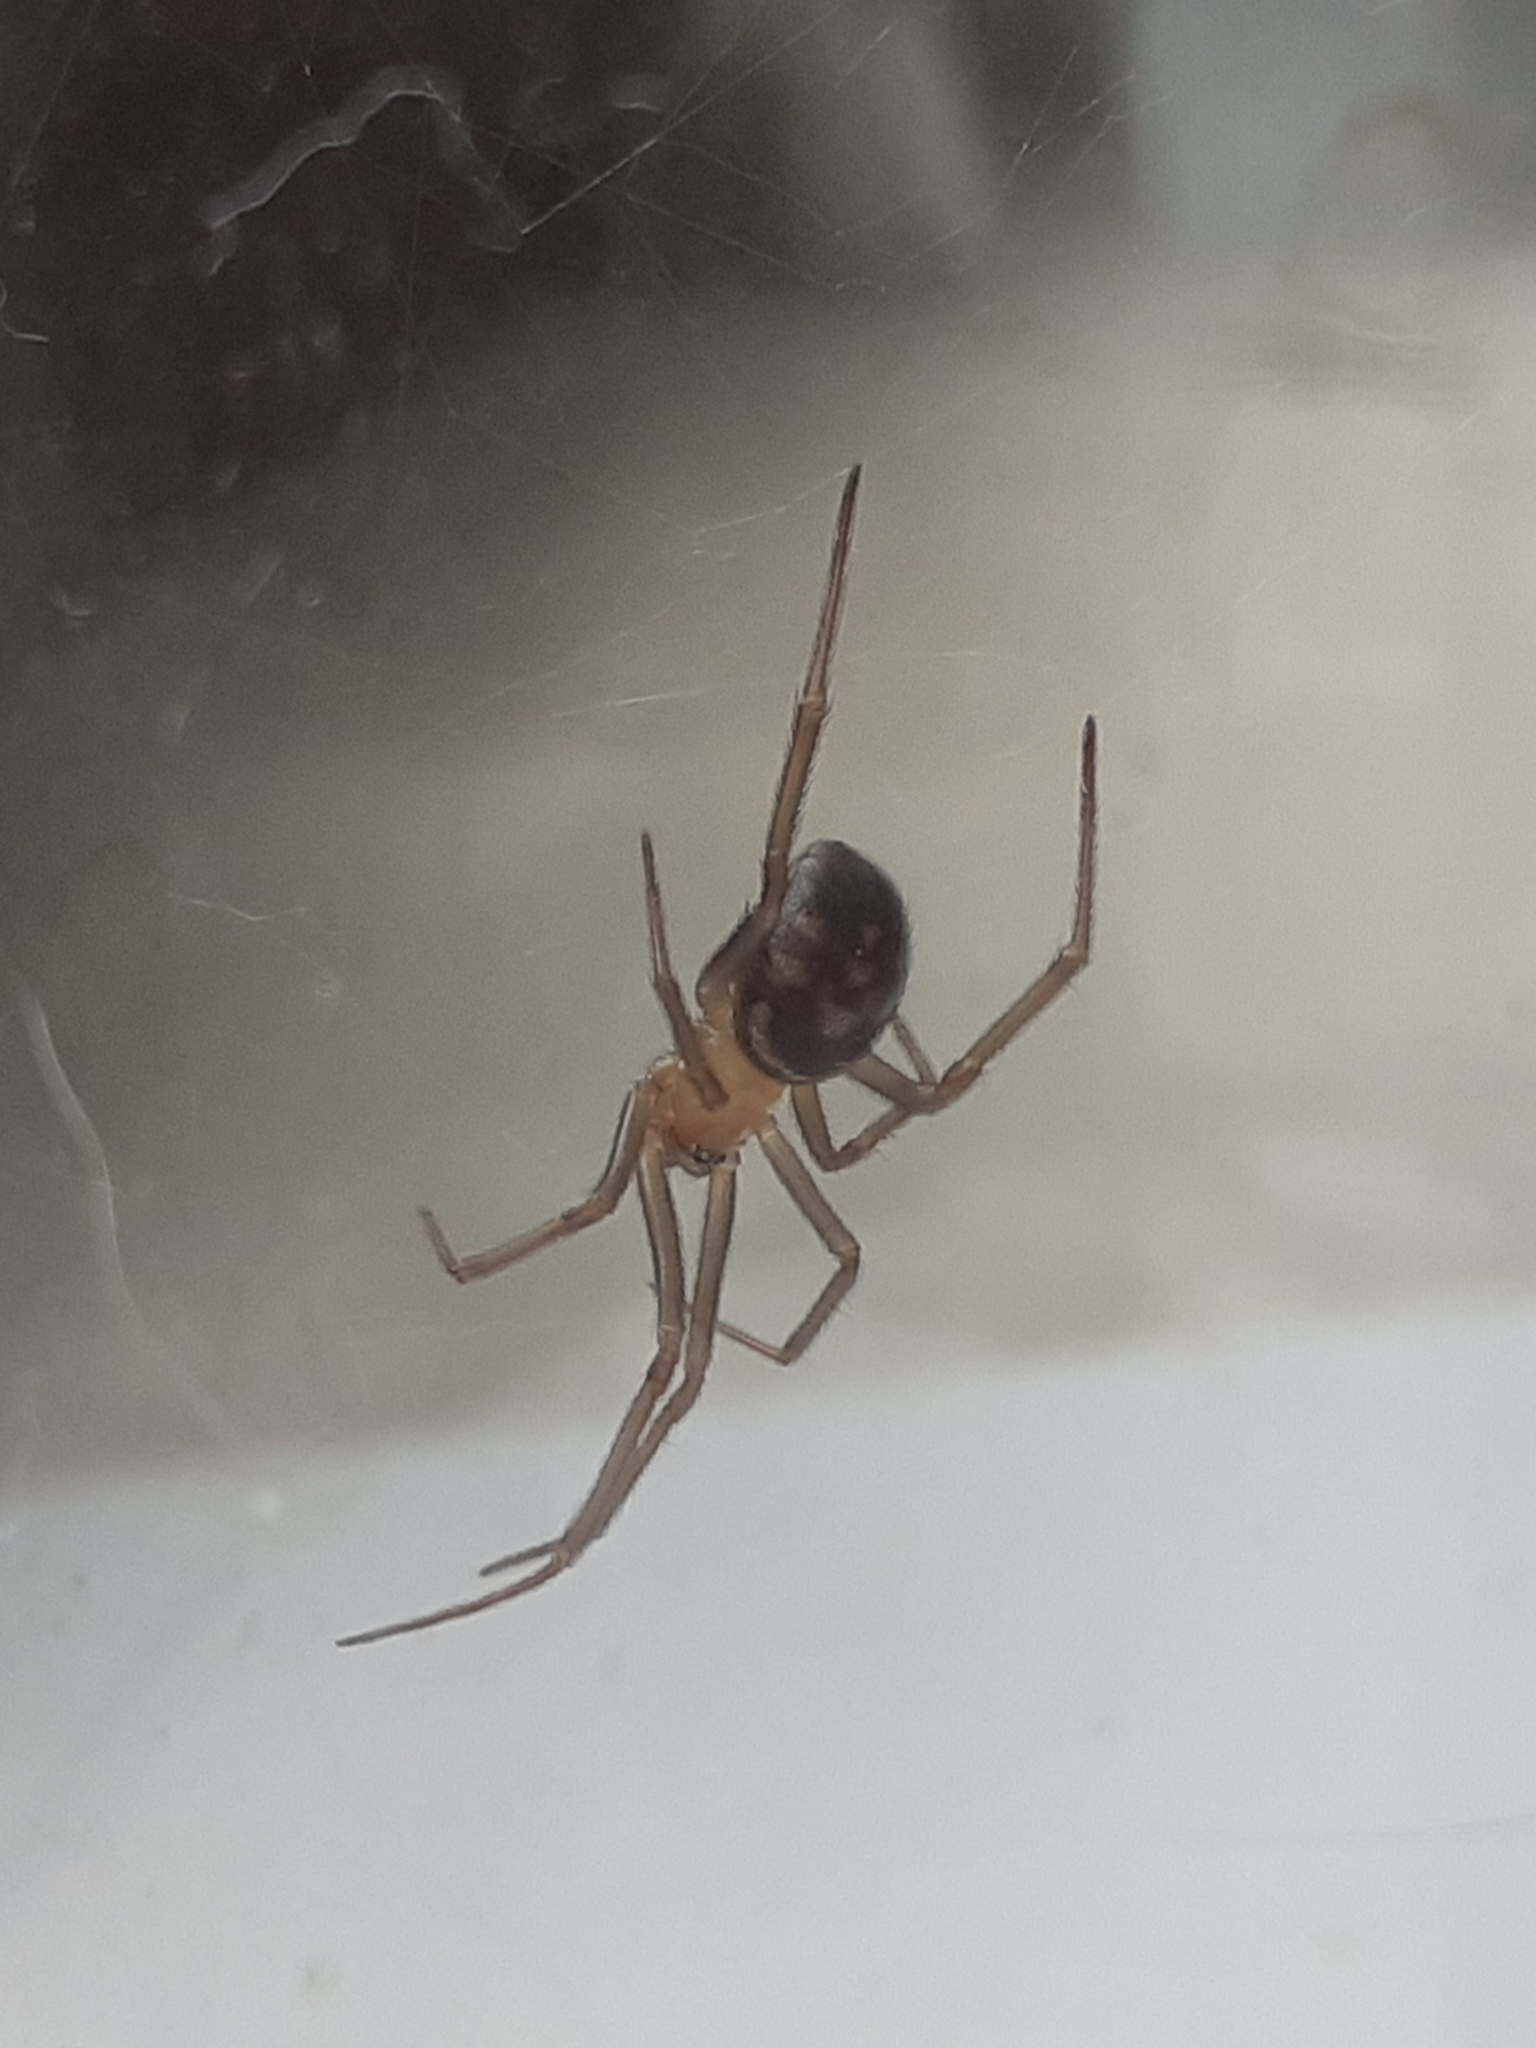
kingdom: Animalia
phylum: Arthropoda
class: Arachnida
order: Araneae
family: Theridiidae
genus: Steatoda
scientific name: Steatoda grossa
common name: False black widow
